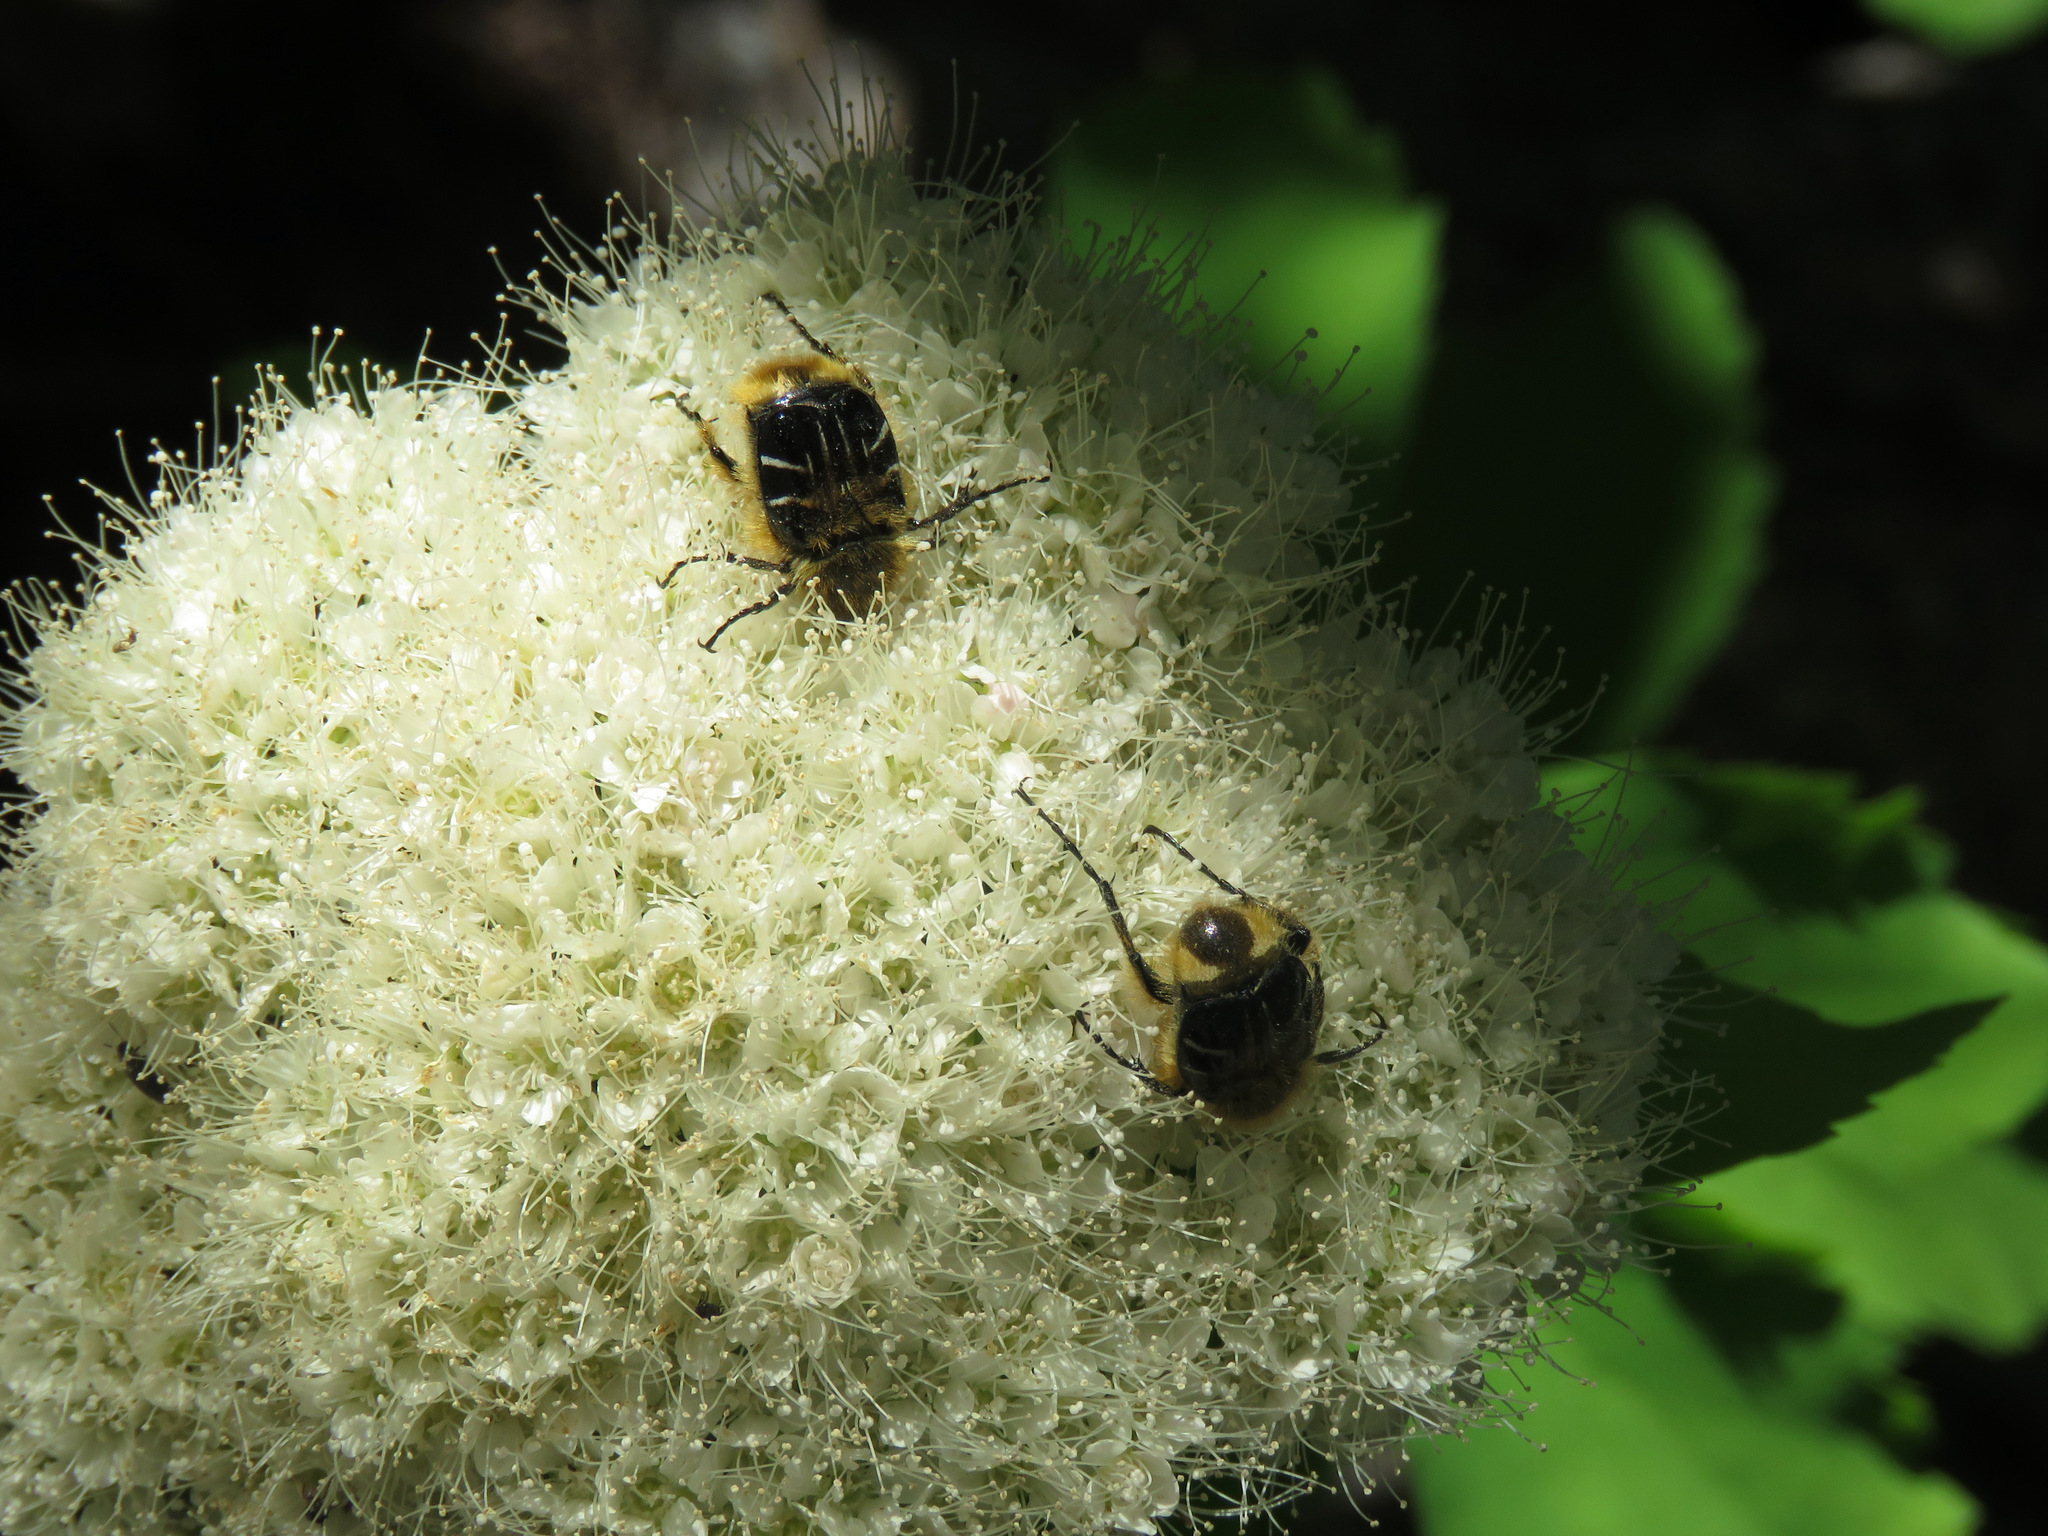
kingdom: Animalia
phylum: Arthropoda
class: Insecta
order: Coleoptera
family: Scarabaeidae
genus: Trichiotinus
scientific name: Trichiotinus assimilis
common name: Bee-mimic beetle
